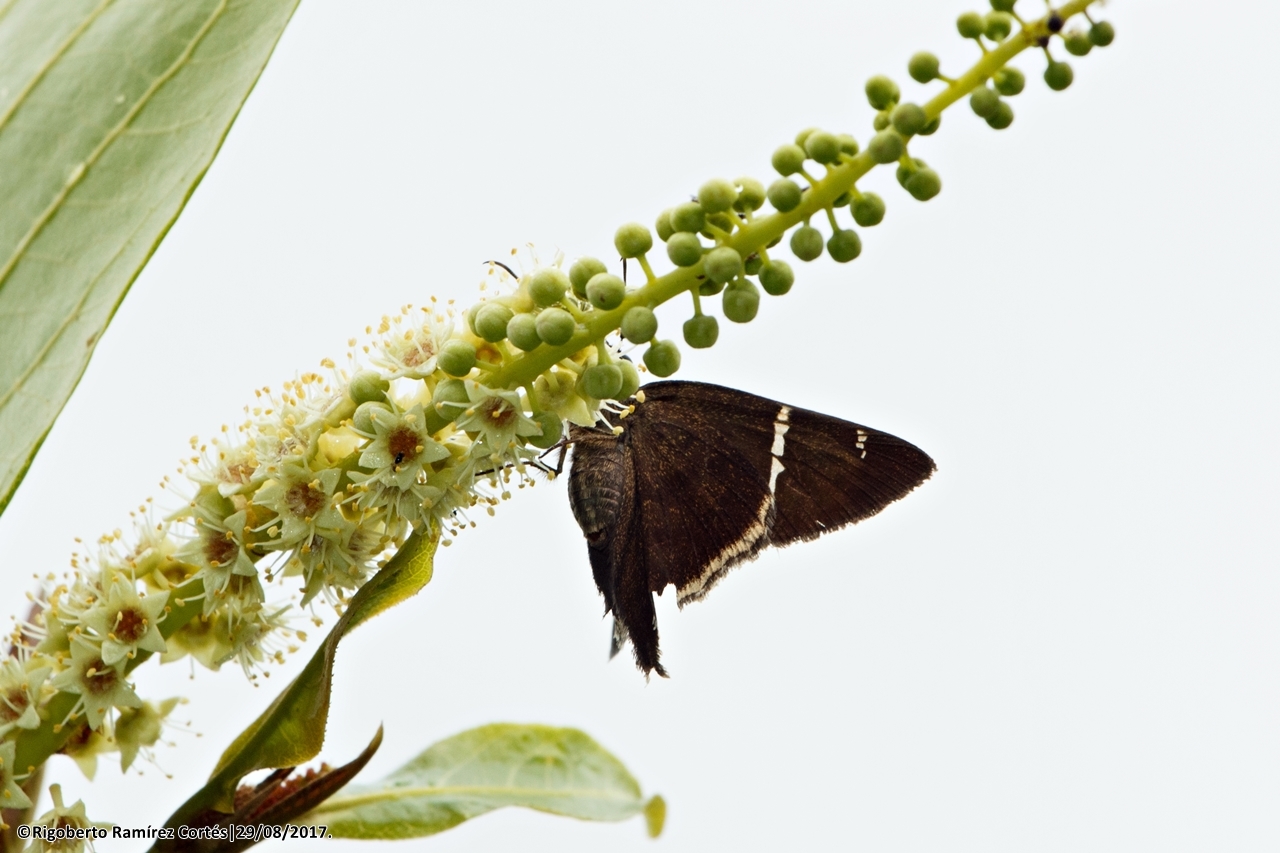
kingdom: Animalia
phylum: Arthropoda
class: Insecta
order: Lepidoptera
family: Hesperiidae
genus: Achalarus
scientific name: Achalarus
